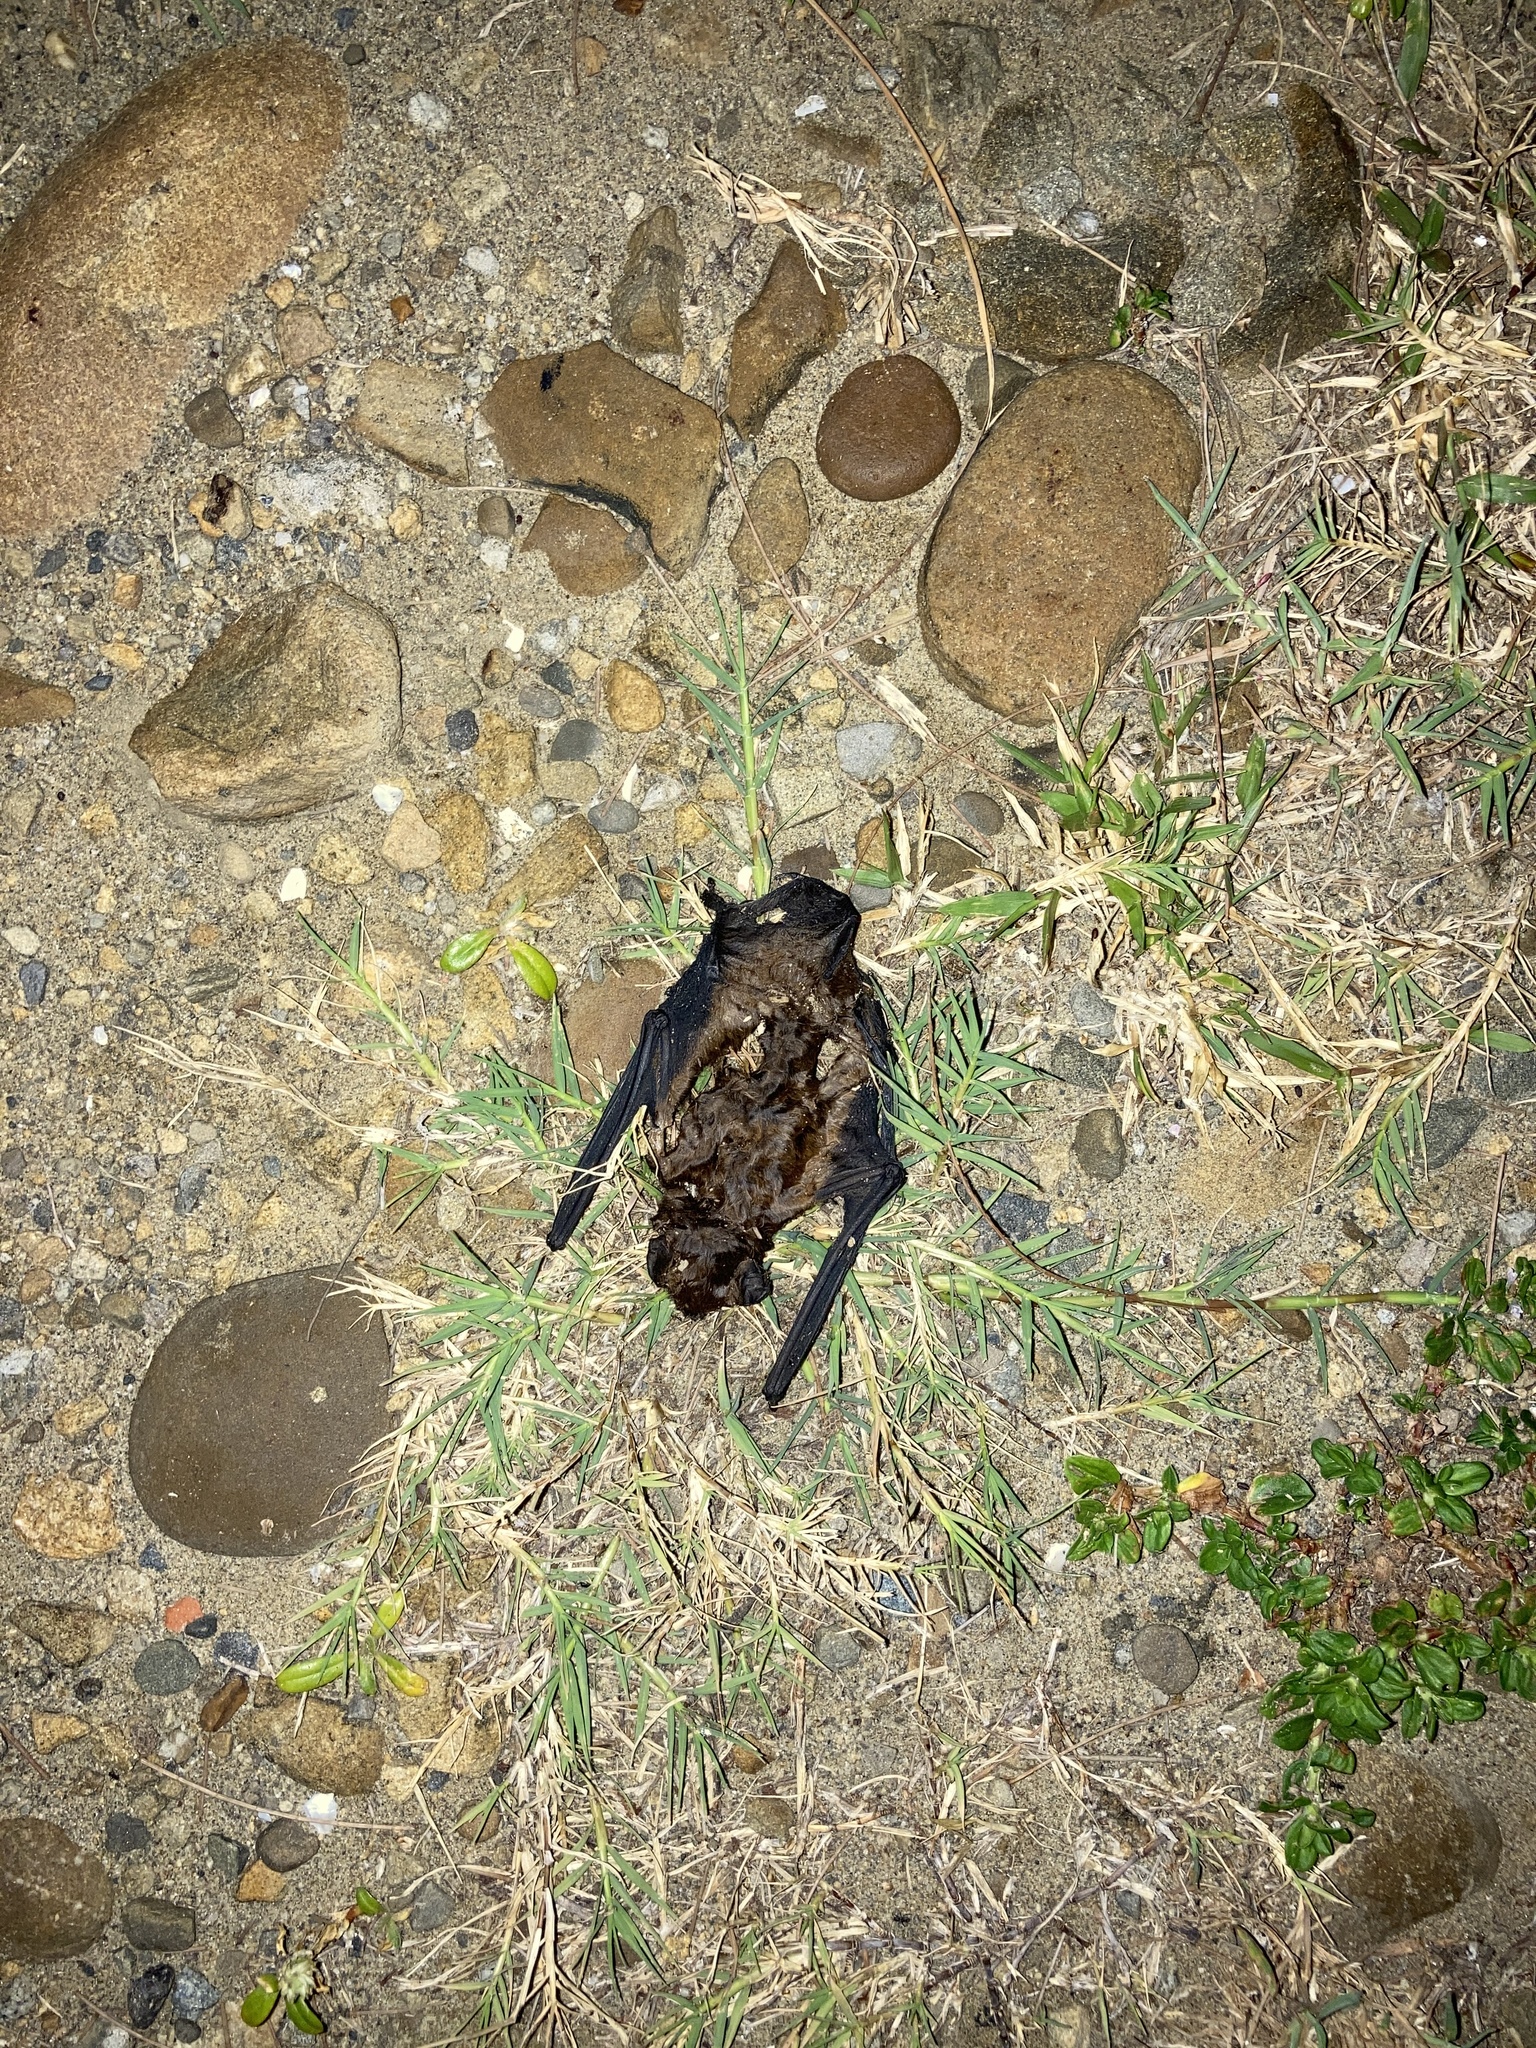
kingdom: Animalia
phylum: Chordata
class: Mammalia
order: Chiroptera
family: Vespertilionidae
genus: Nyctalus
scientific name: Nyctalus plancyi
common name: Chinese noctule
